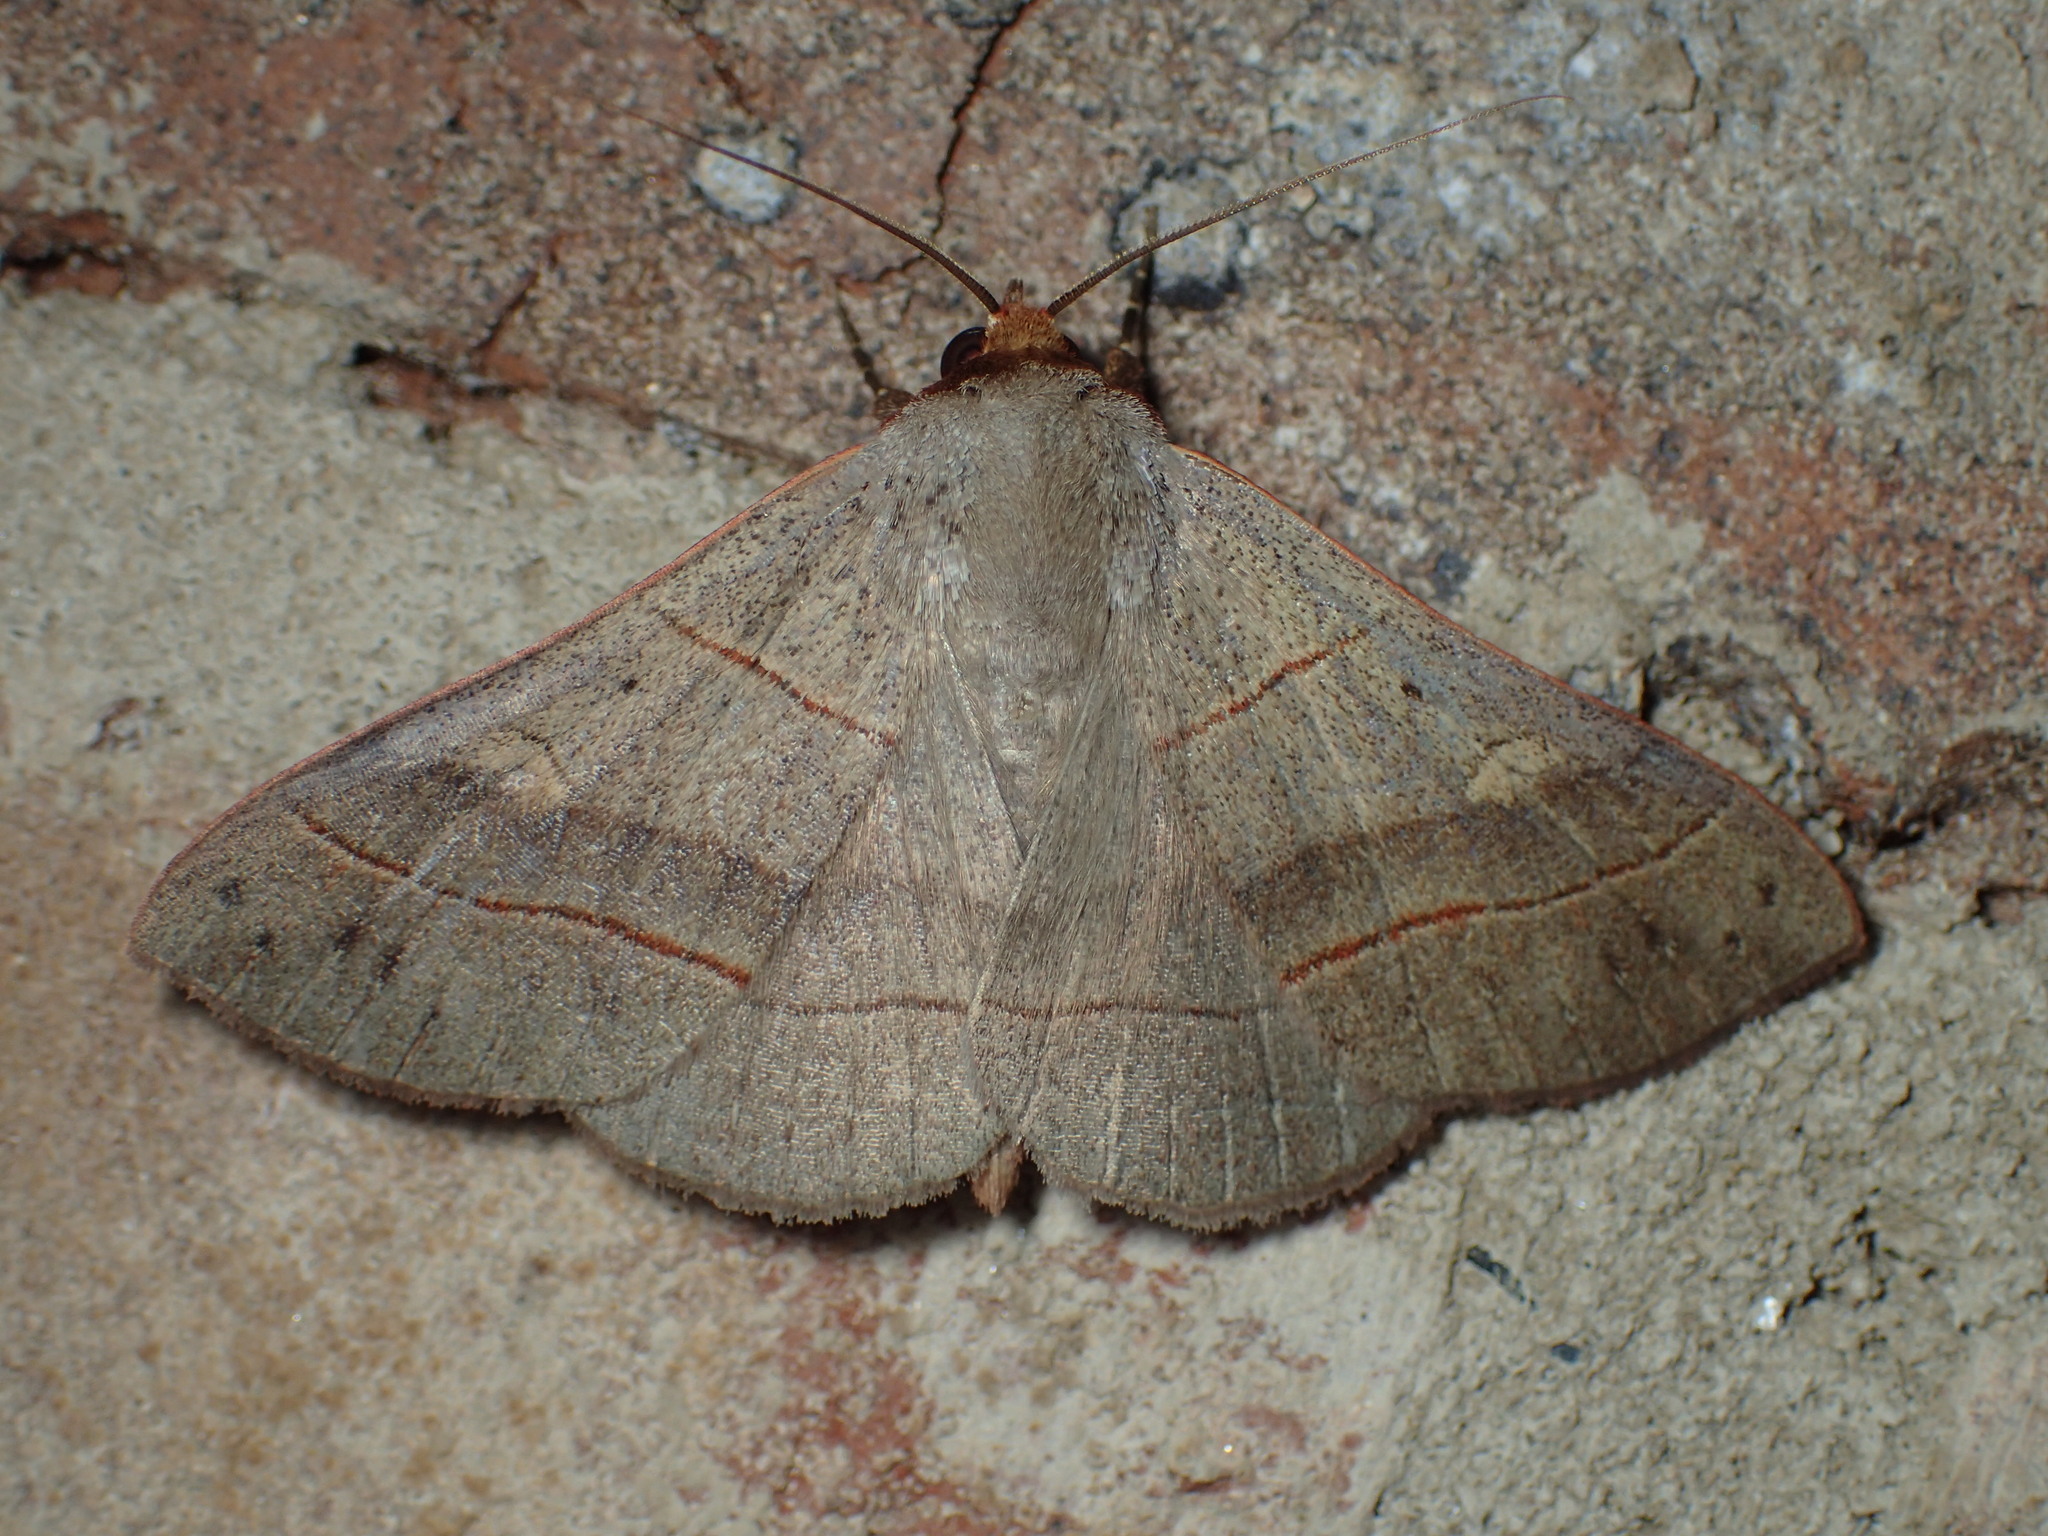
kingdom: Animalia
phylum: Arthropoda
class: Insecta
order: Lepidoptera
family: Erebidae
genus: Panopoda
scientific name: Panopoda rufimargo
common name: Red-lined panopoda moth
